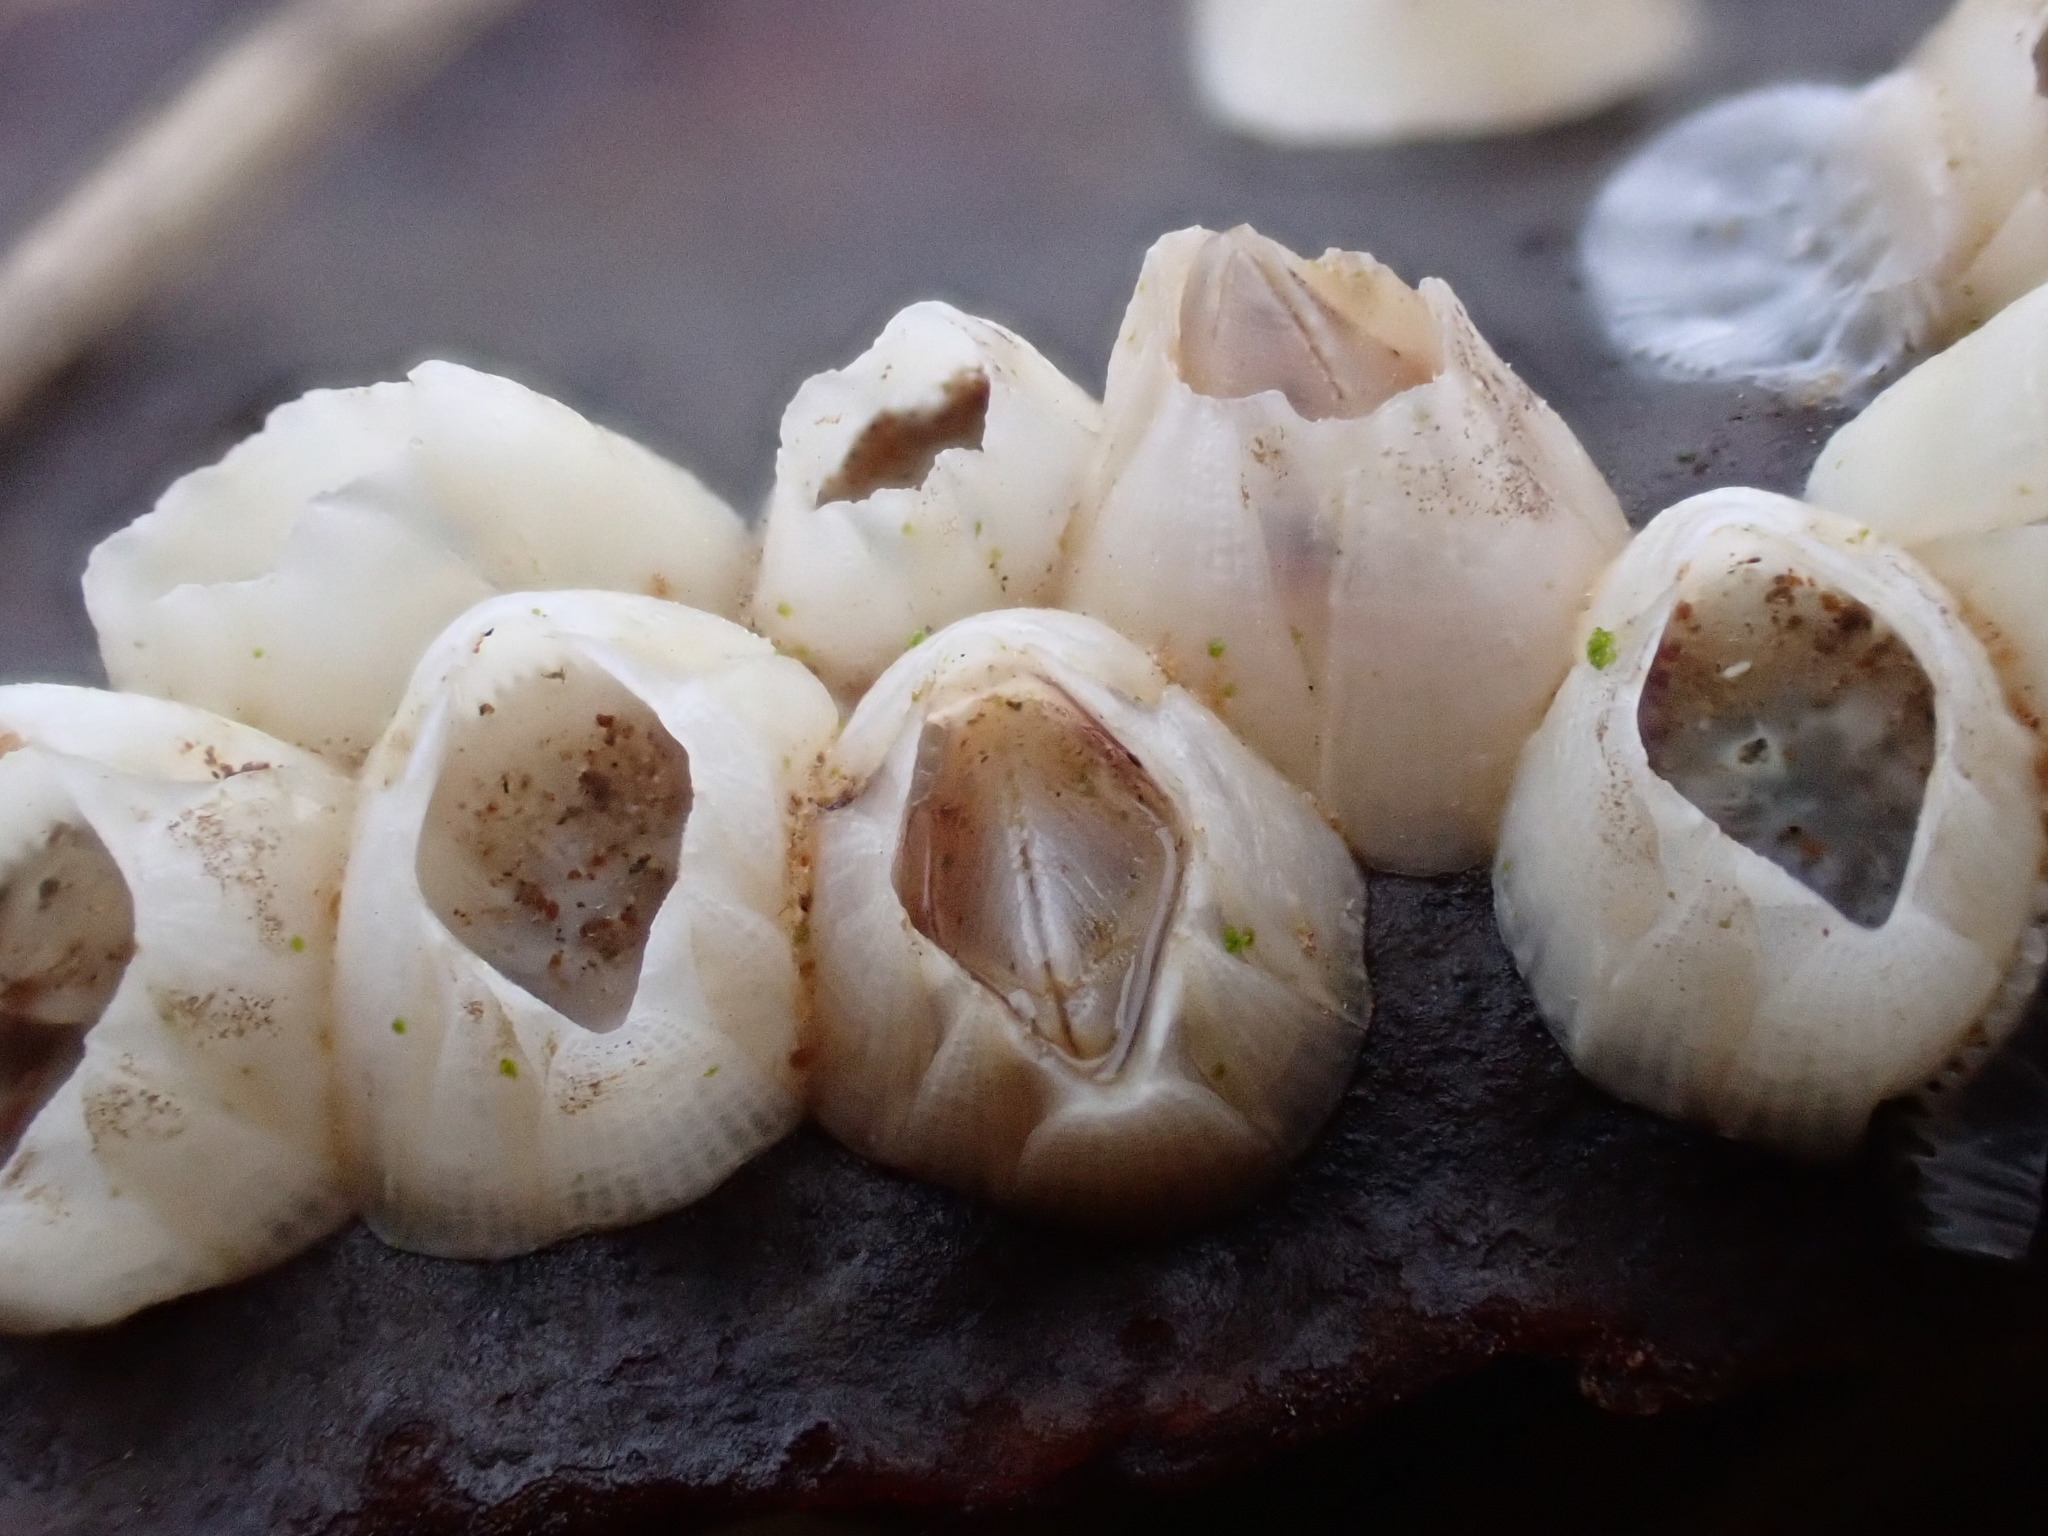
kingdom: Animalia
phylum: Arthropoda
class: Maxillopoda
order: Sessilia
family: Balanidae
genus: Amphibalanus
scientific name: Amphibalanus improvisus
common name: Bay barnacle
